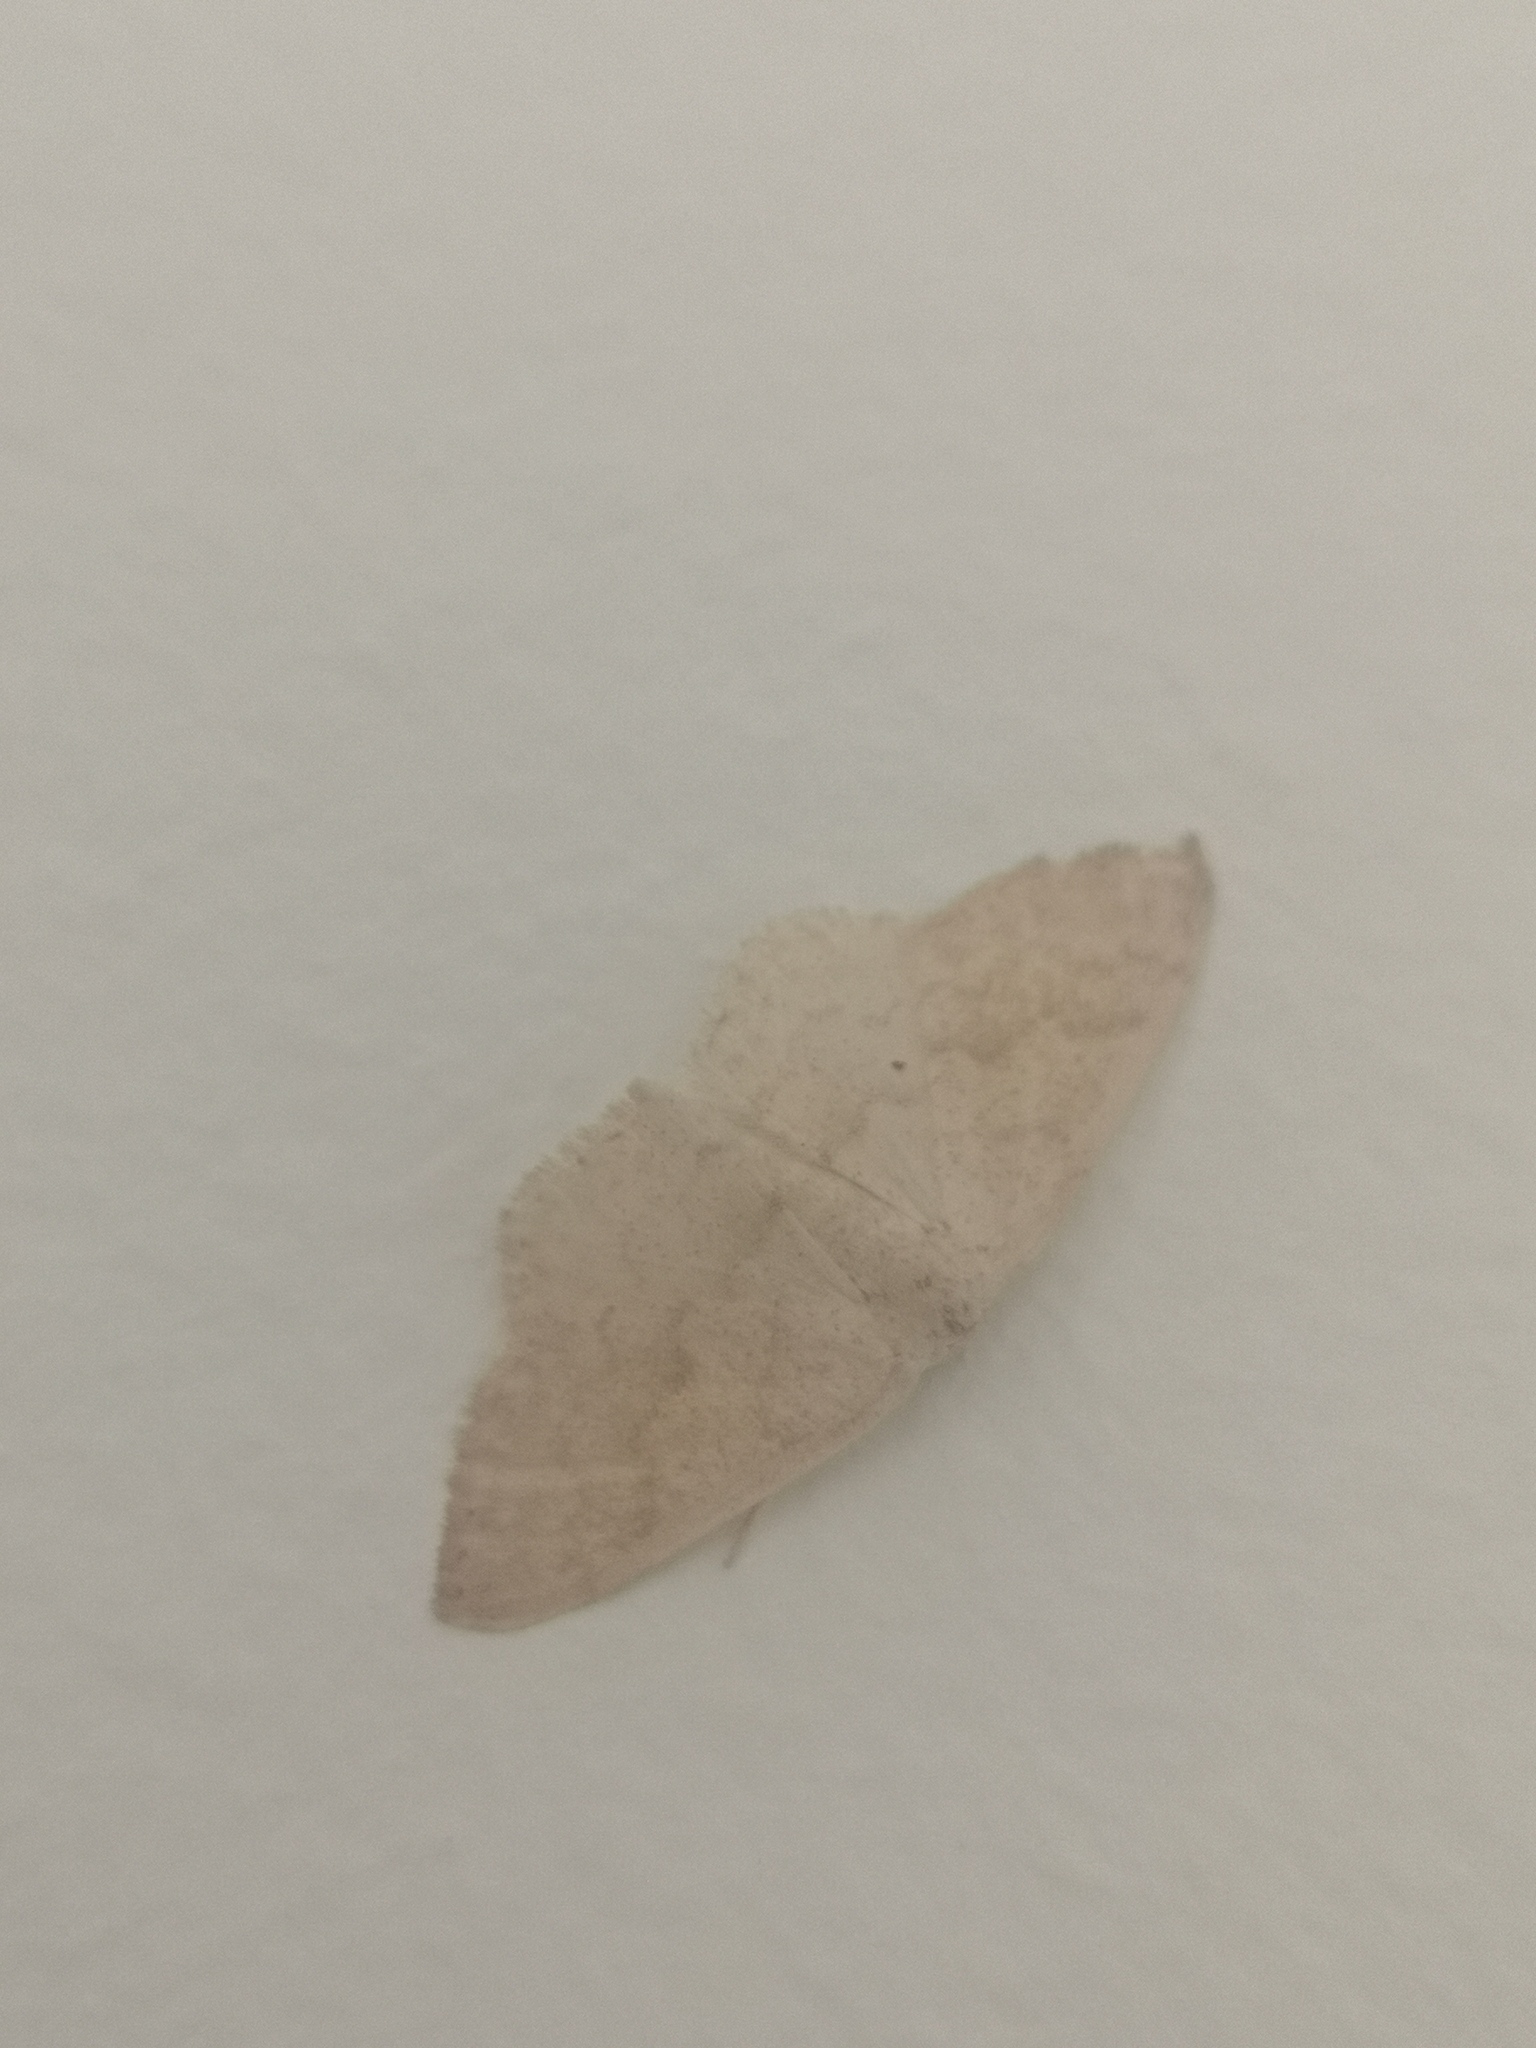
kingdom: Animalia
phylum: Arthropoda
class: Insecta
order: Lepidoptera
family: Geometridae
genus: Scopula
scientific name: Scopula decolor
